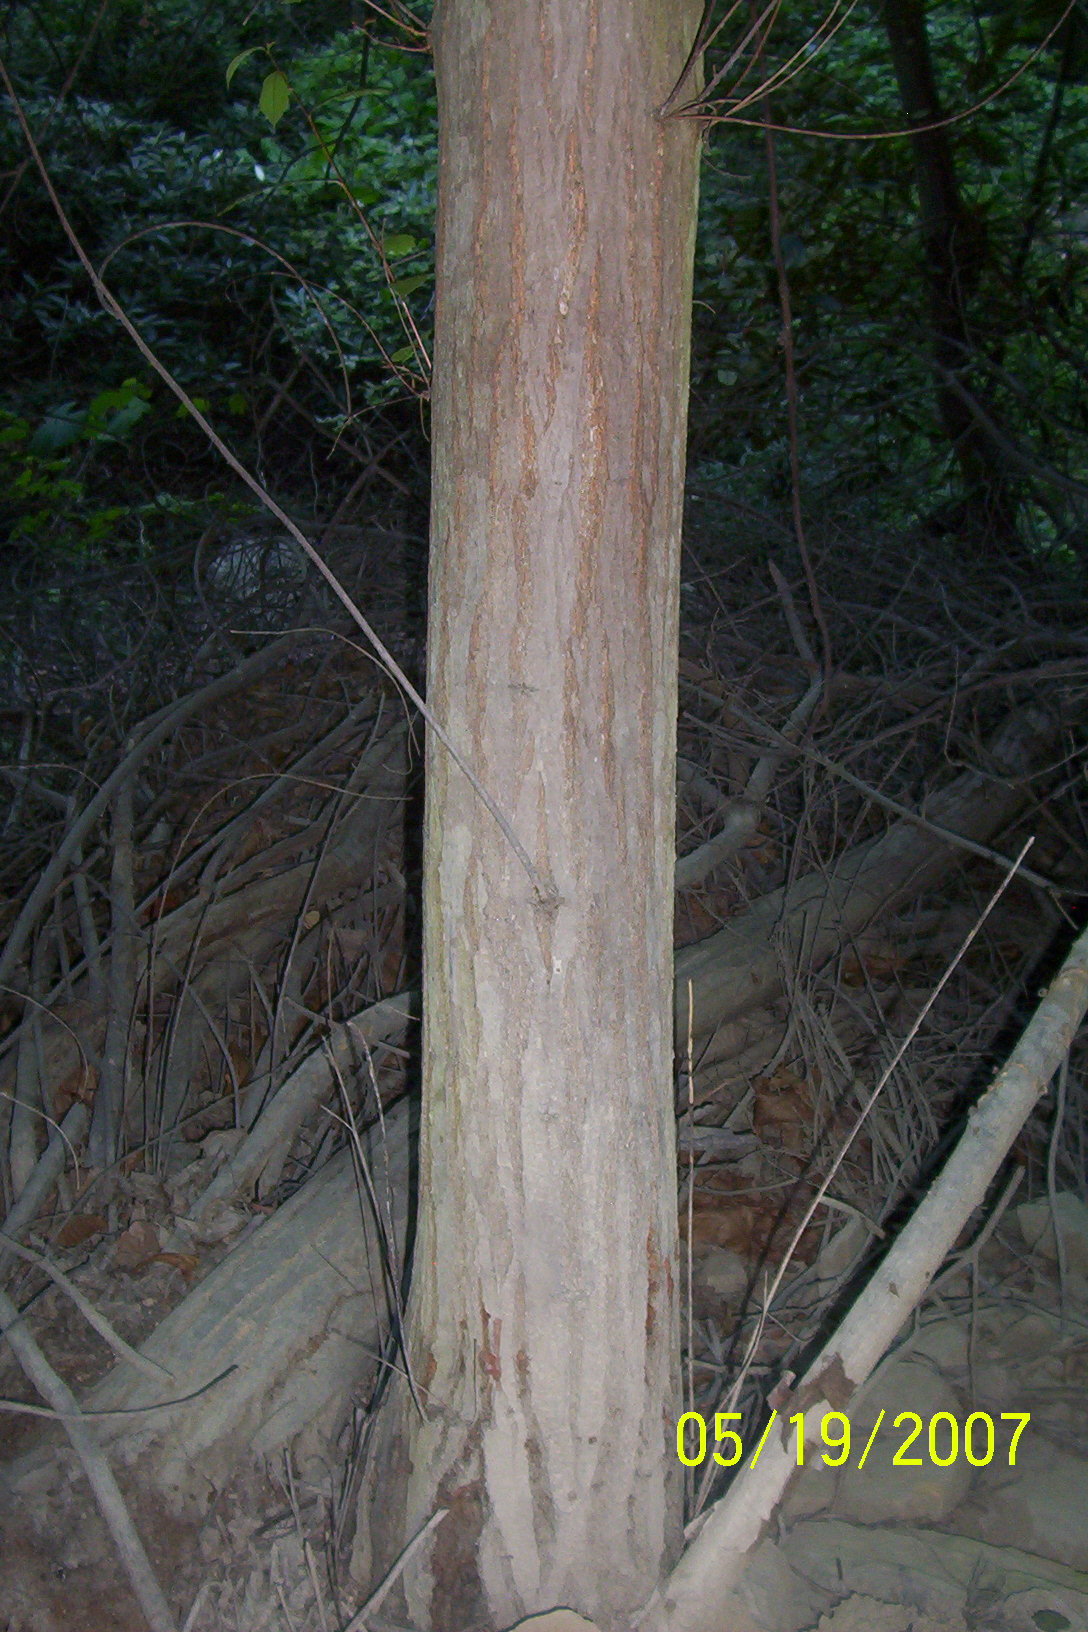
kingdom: Plantae
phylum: Tracheophyta
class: Magnoliopsida
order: Fagales
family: Fagaceae
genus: Castanea
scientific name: Castanea dentata
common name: American chestnut
